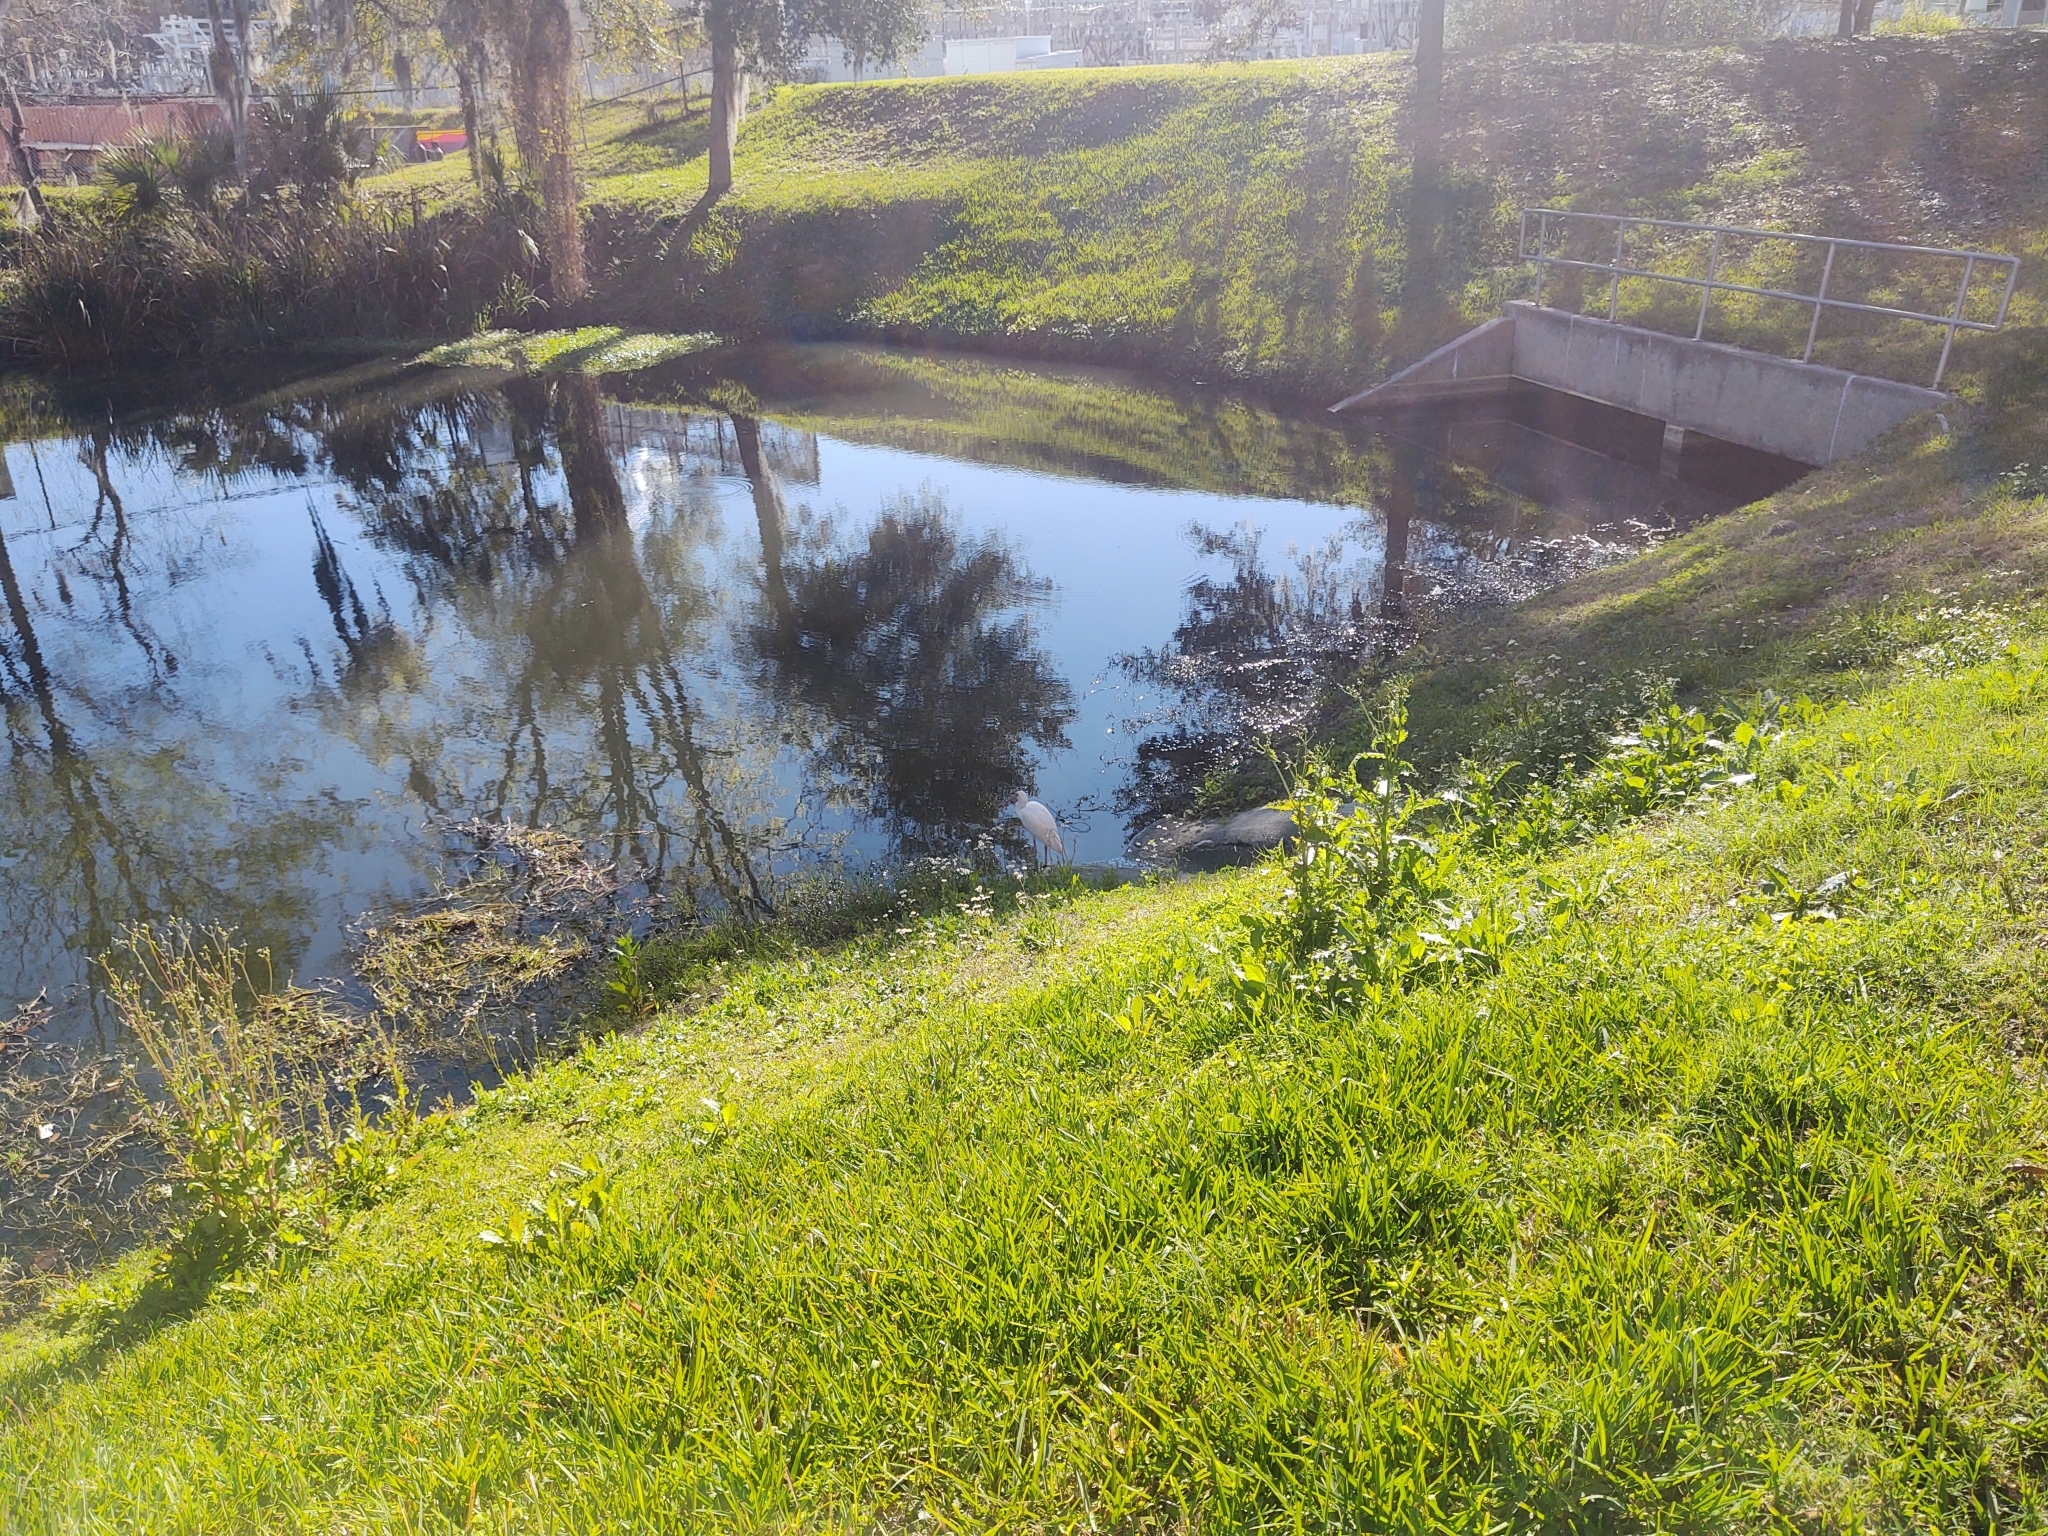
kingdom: Animalia
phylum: Chordata
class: Aves
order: Pelecaniformes
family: Threskiornithidae
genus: Eudocimus
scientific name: Eudocimus albus
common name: White ibis
